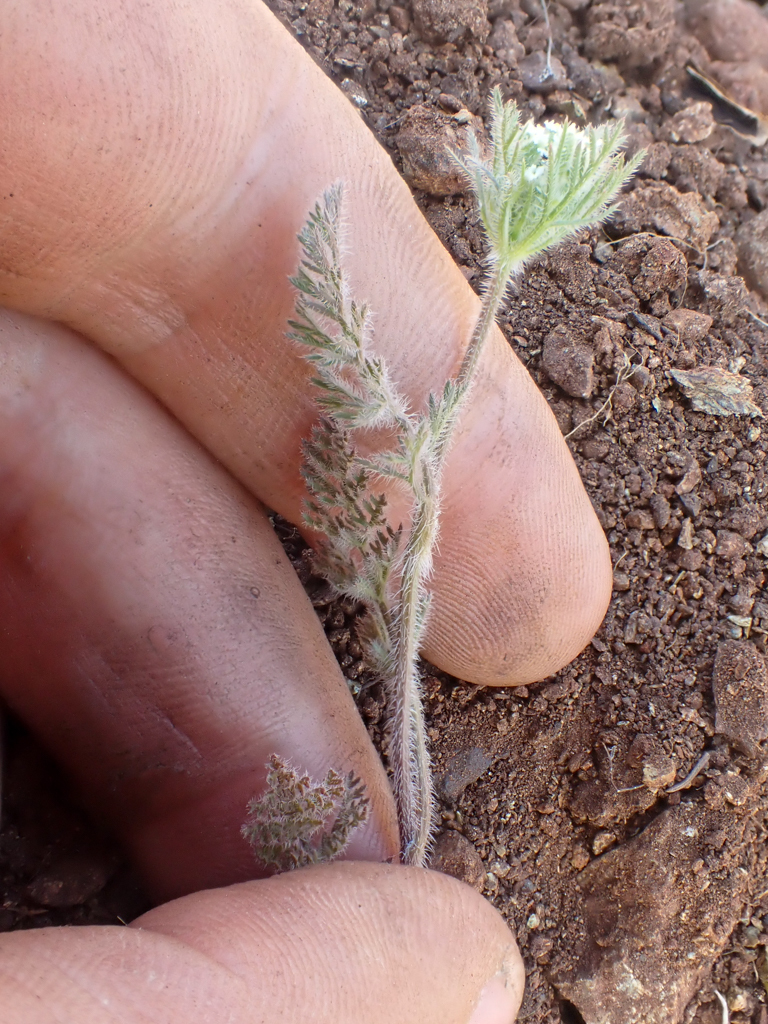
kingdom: Plantae
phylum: Tracheophyta
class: Magnoliopsida
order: Apiales
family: Apiaceae
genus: Daucus
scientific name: Daucus pusillus
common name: Southwest wild carrot
